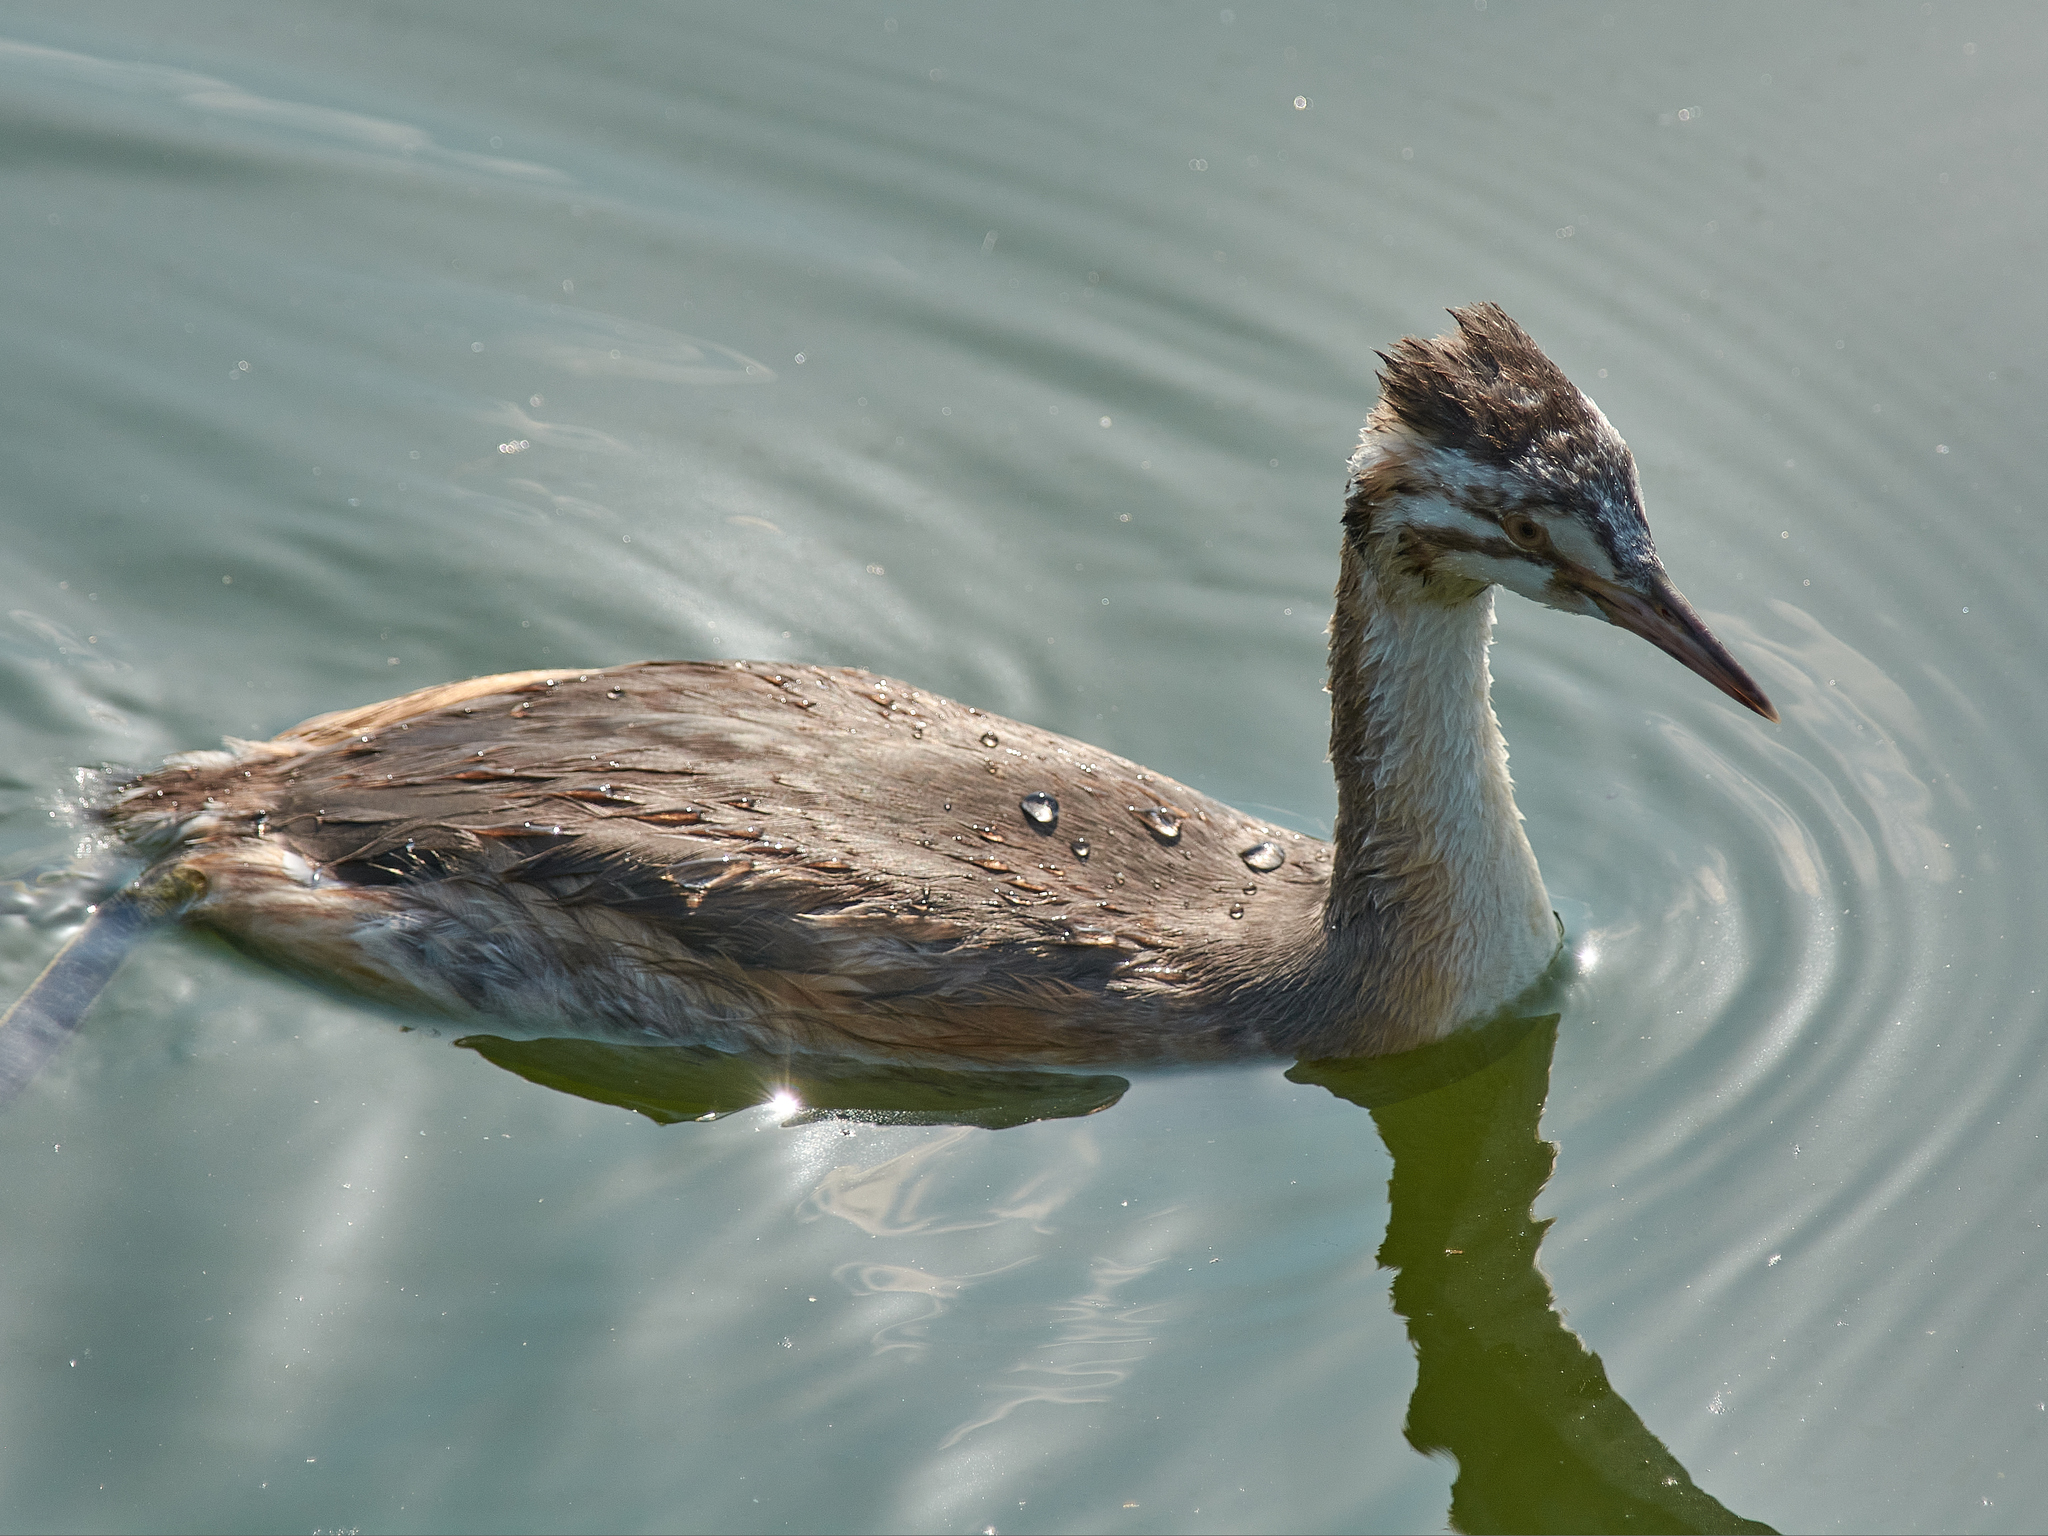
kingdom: Animalia
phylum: Chordata
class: Aves
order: Podicipediformes
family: Podicipedidae
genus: Podiceps
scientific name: Podiceps cristatus
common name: Great crested grebe
